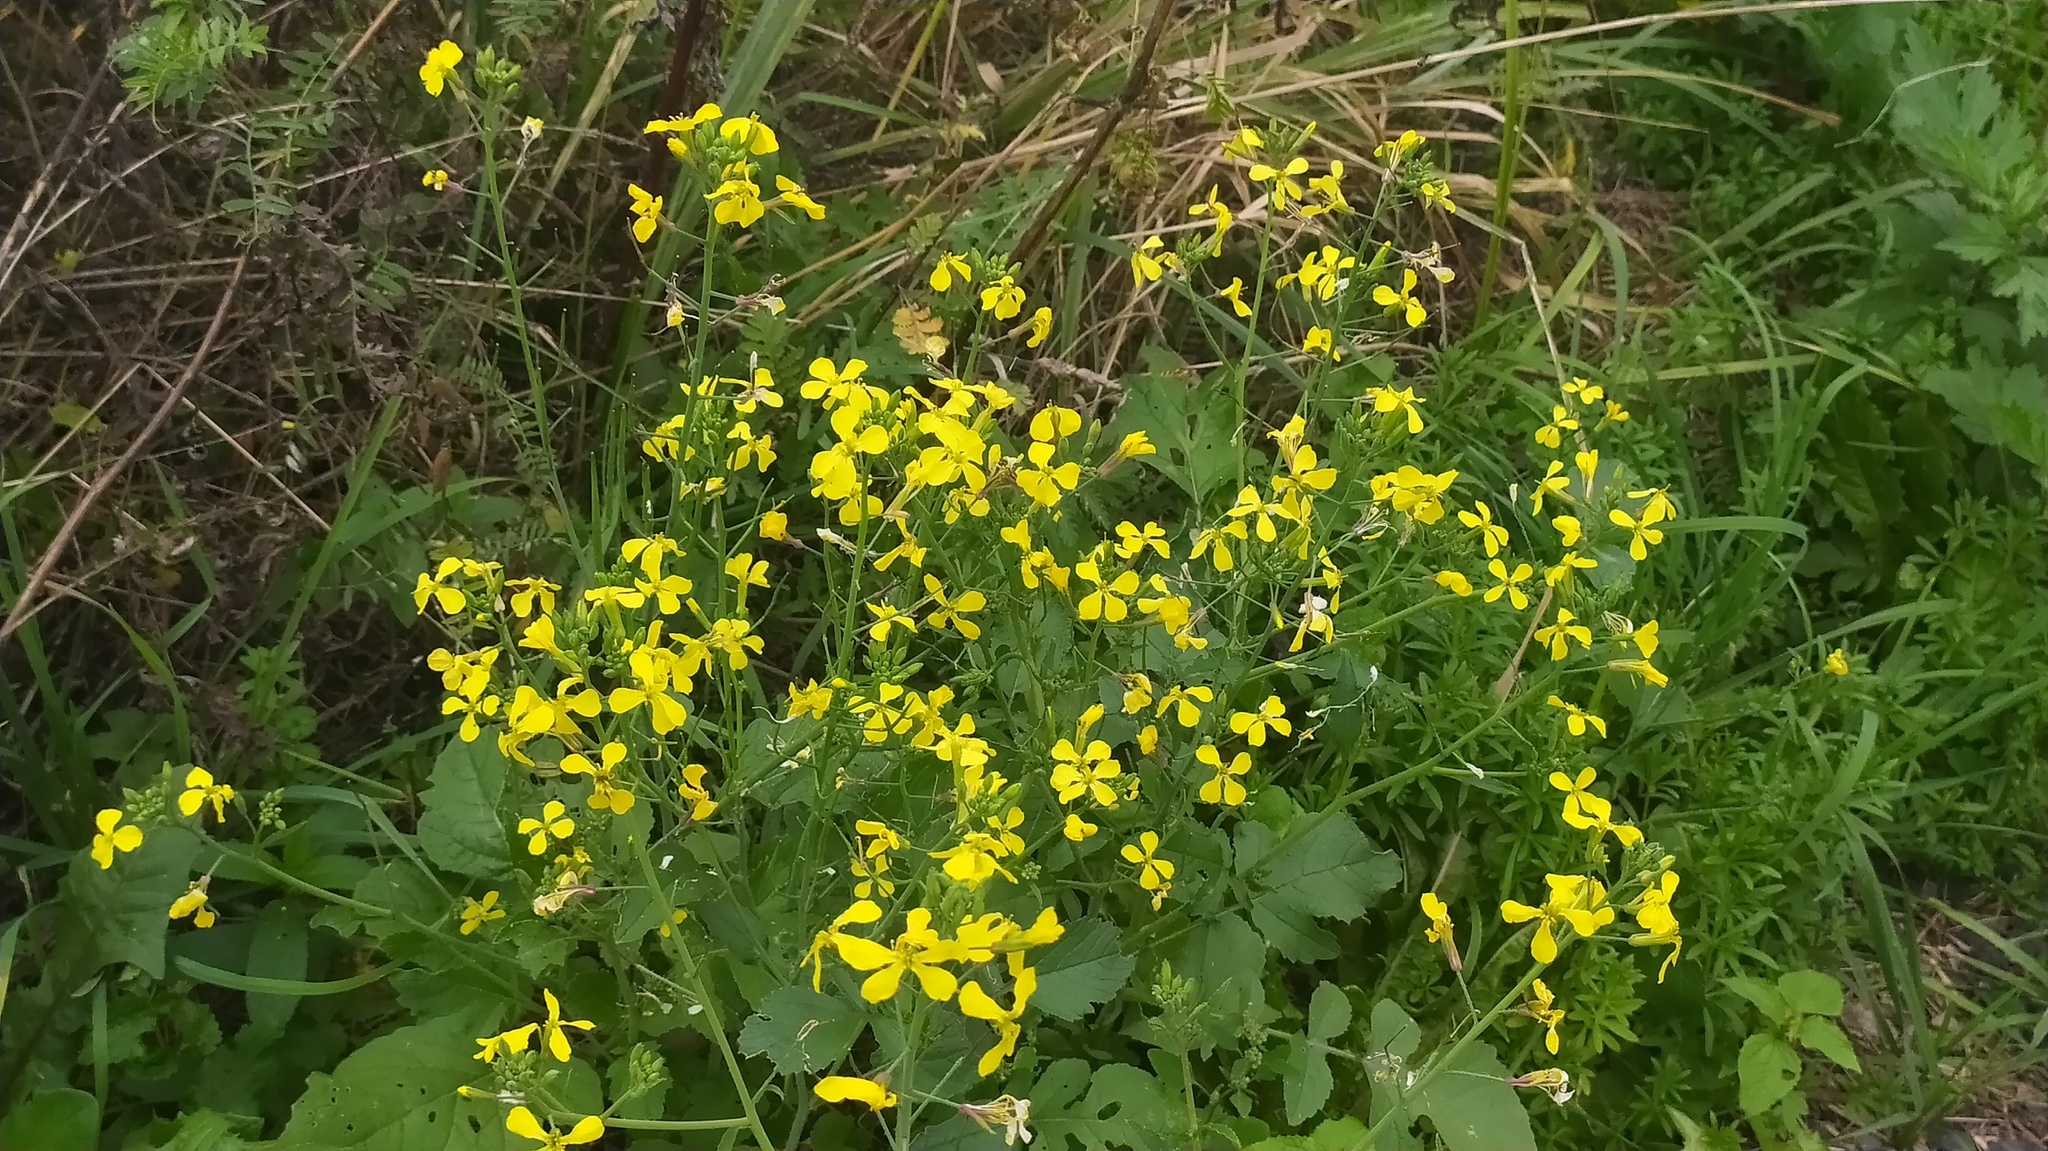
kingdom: Plantae
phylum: Tracheophyta
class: Magnoliopsida
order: Brassicales
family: Brassicaceae
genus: Raphanus
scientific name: Raphanus raphanistrum
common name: Wild radish
